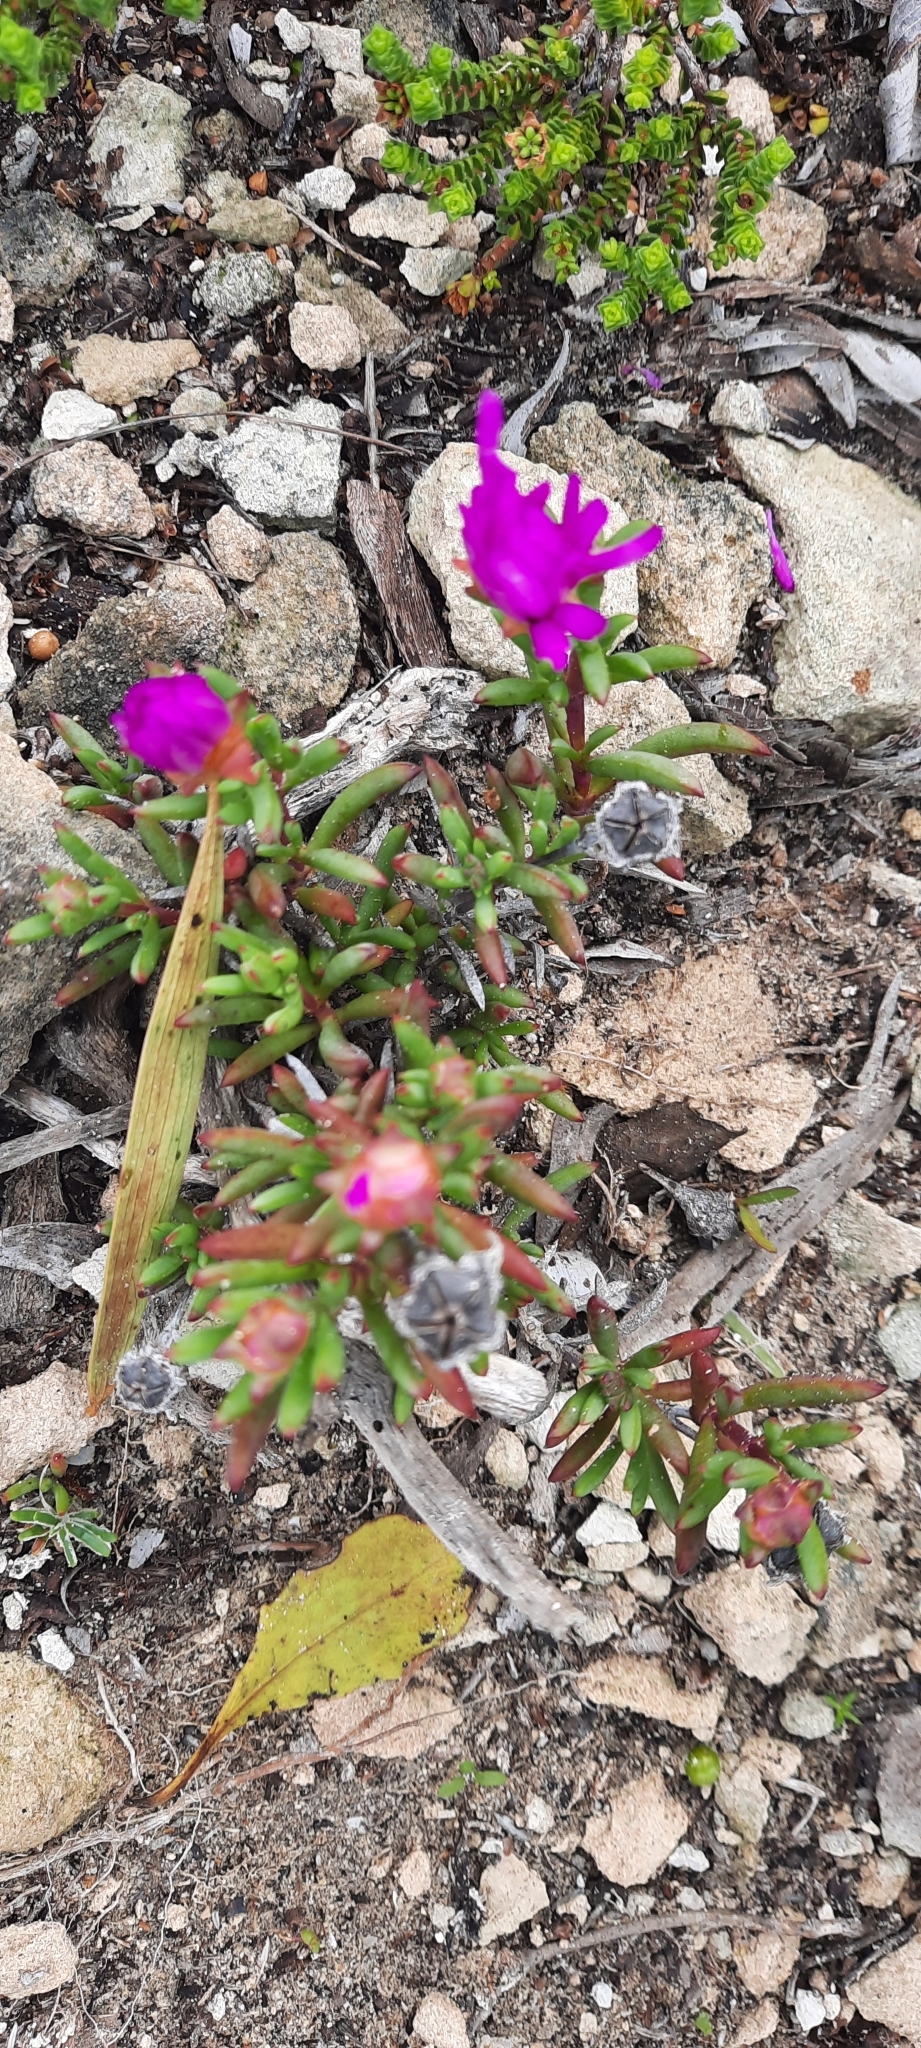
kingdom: Plantae
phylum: Tracheophyta
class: Magnoliopsida
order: Caryophyllales
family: Aizoaceae
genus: Lampranthus
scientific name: Lampranthus ceriseus
